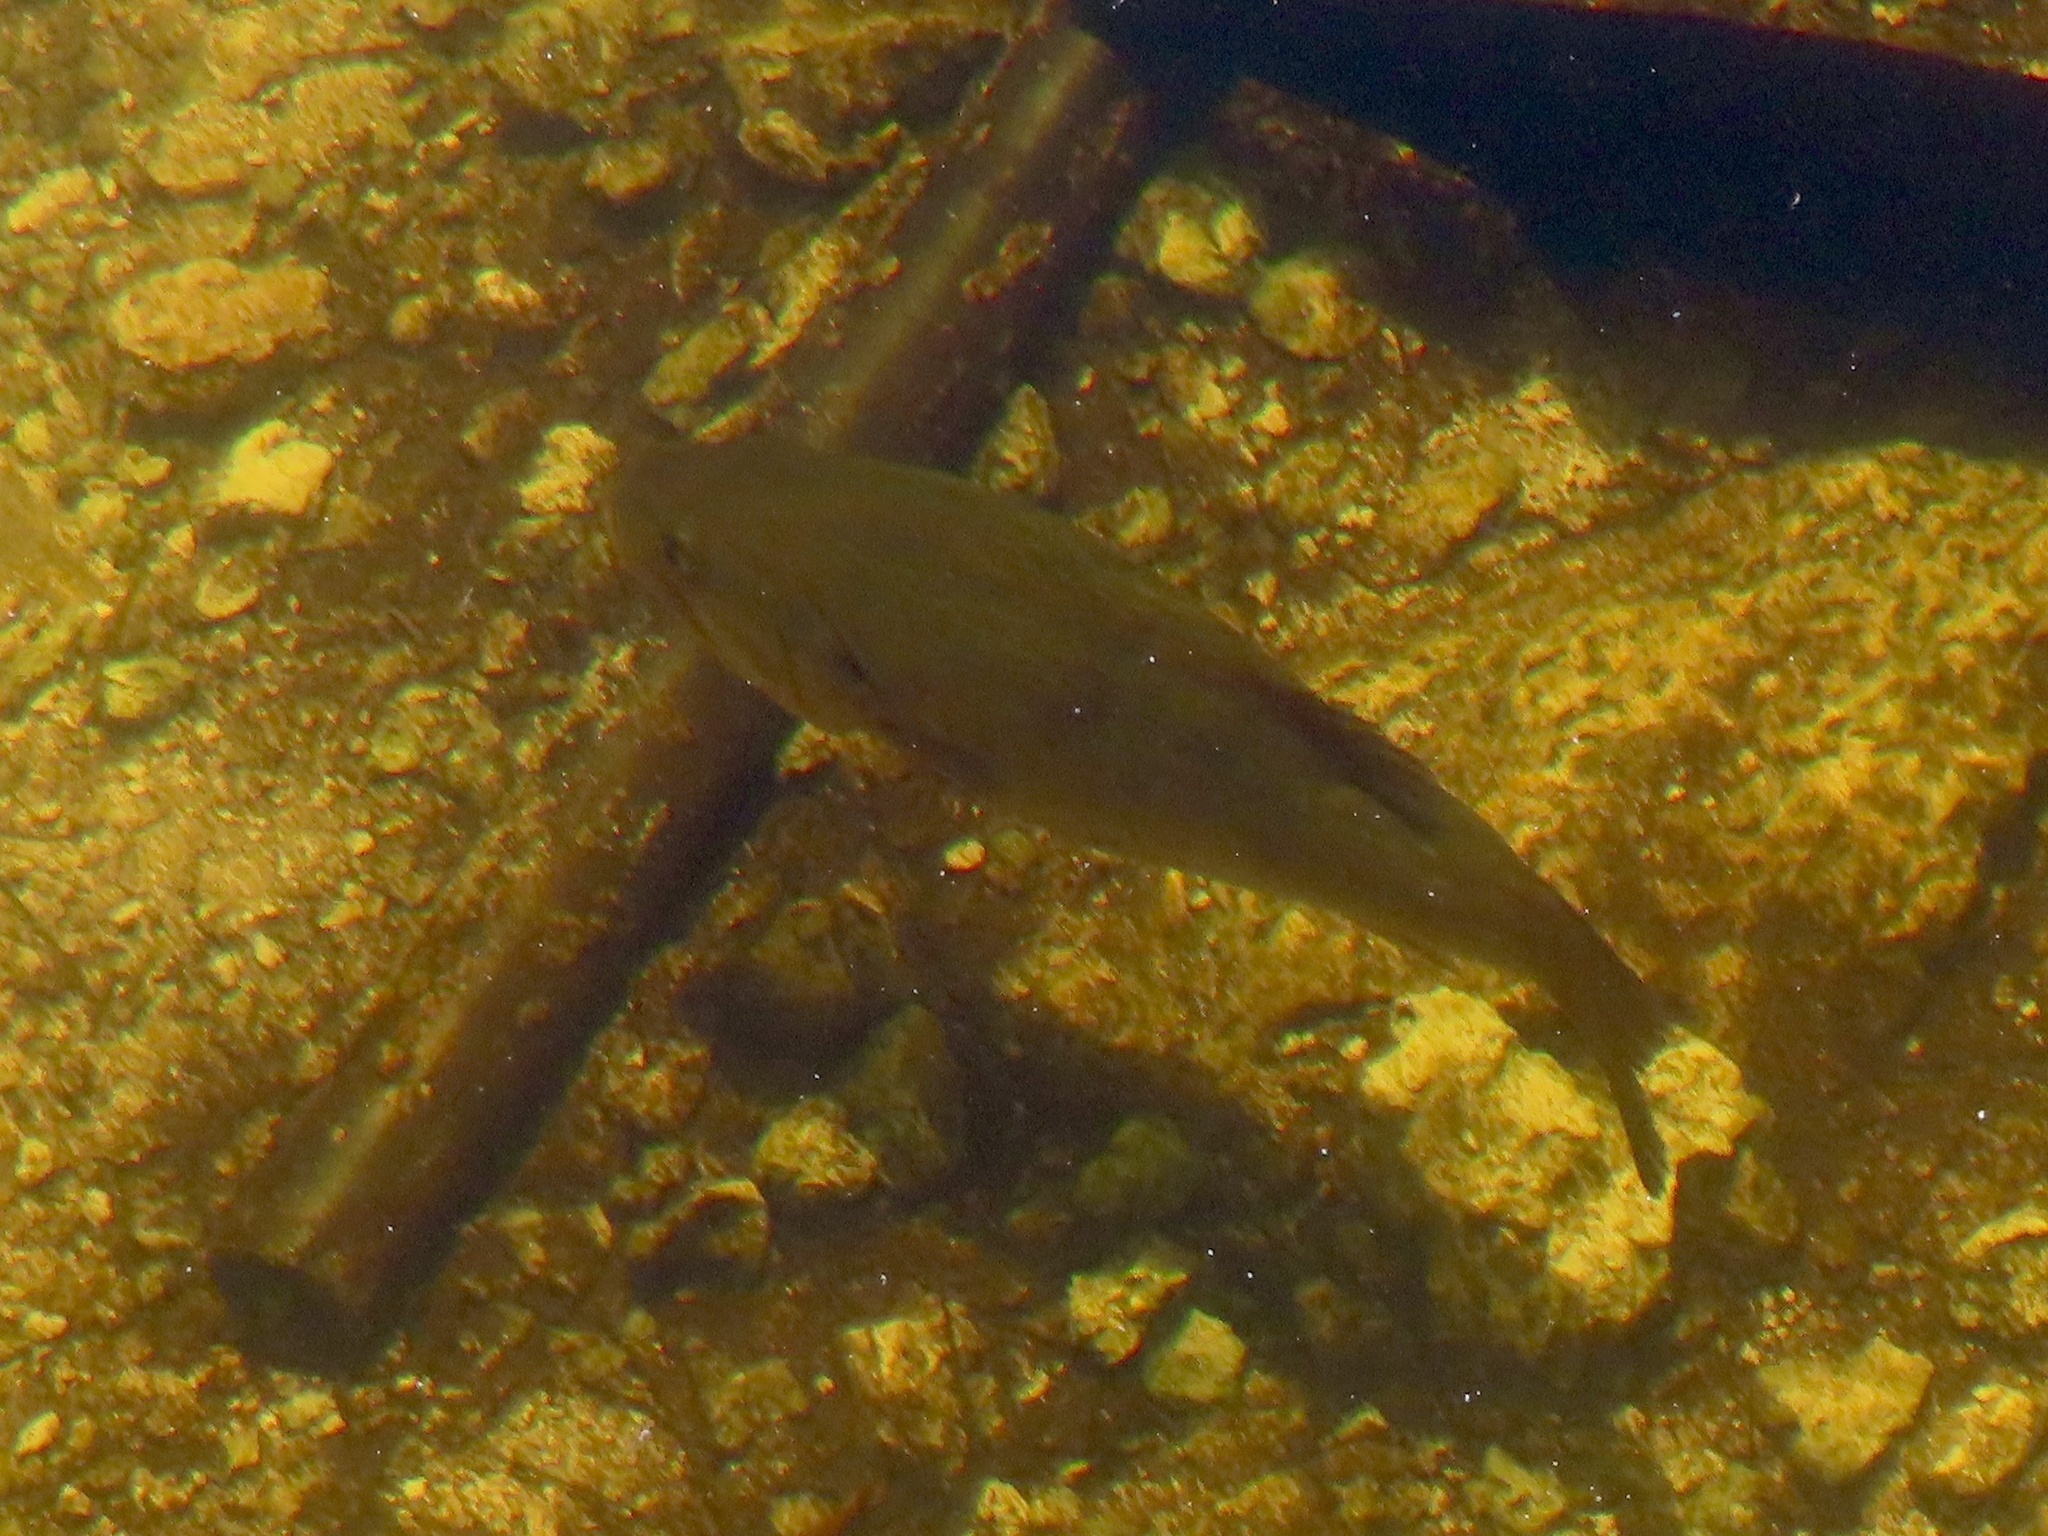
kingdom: Animalia
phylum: Chordata
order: Perciformes
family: Centrarchidae
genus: Micropterus
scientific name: Micropterus salmoides
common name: Largemouth bass
